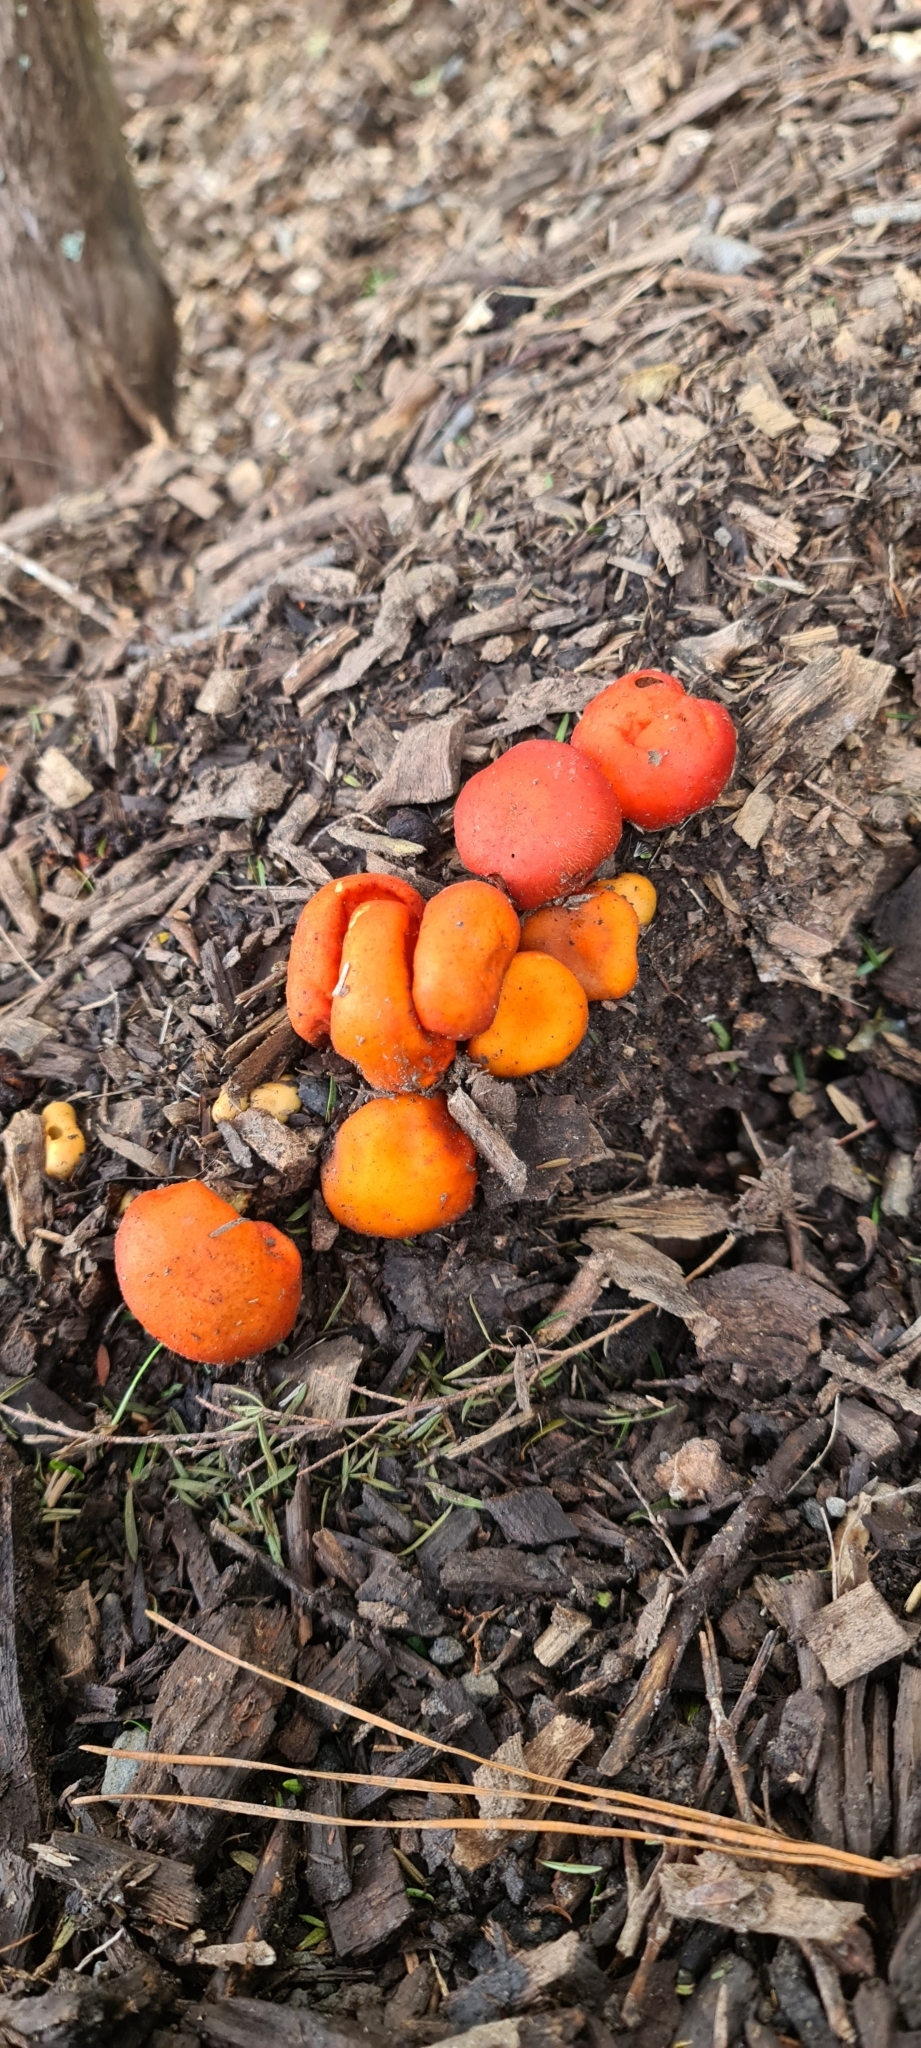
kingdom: Fungi
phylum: Basidiomycota
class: Agaricomycetes
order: Agaricales
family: Strophariaceae
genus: Leratiomyces
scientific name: Leratiomyces erythrocephalus
